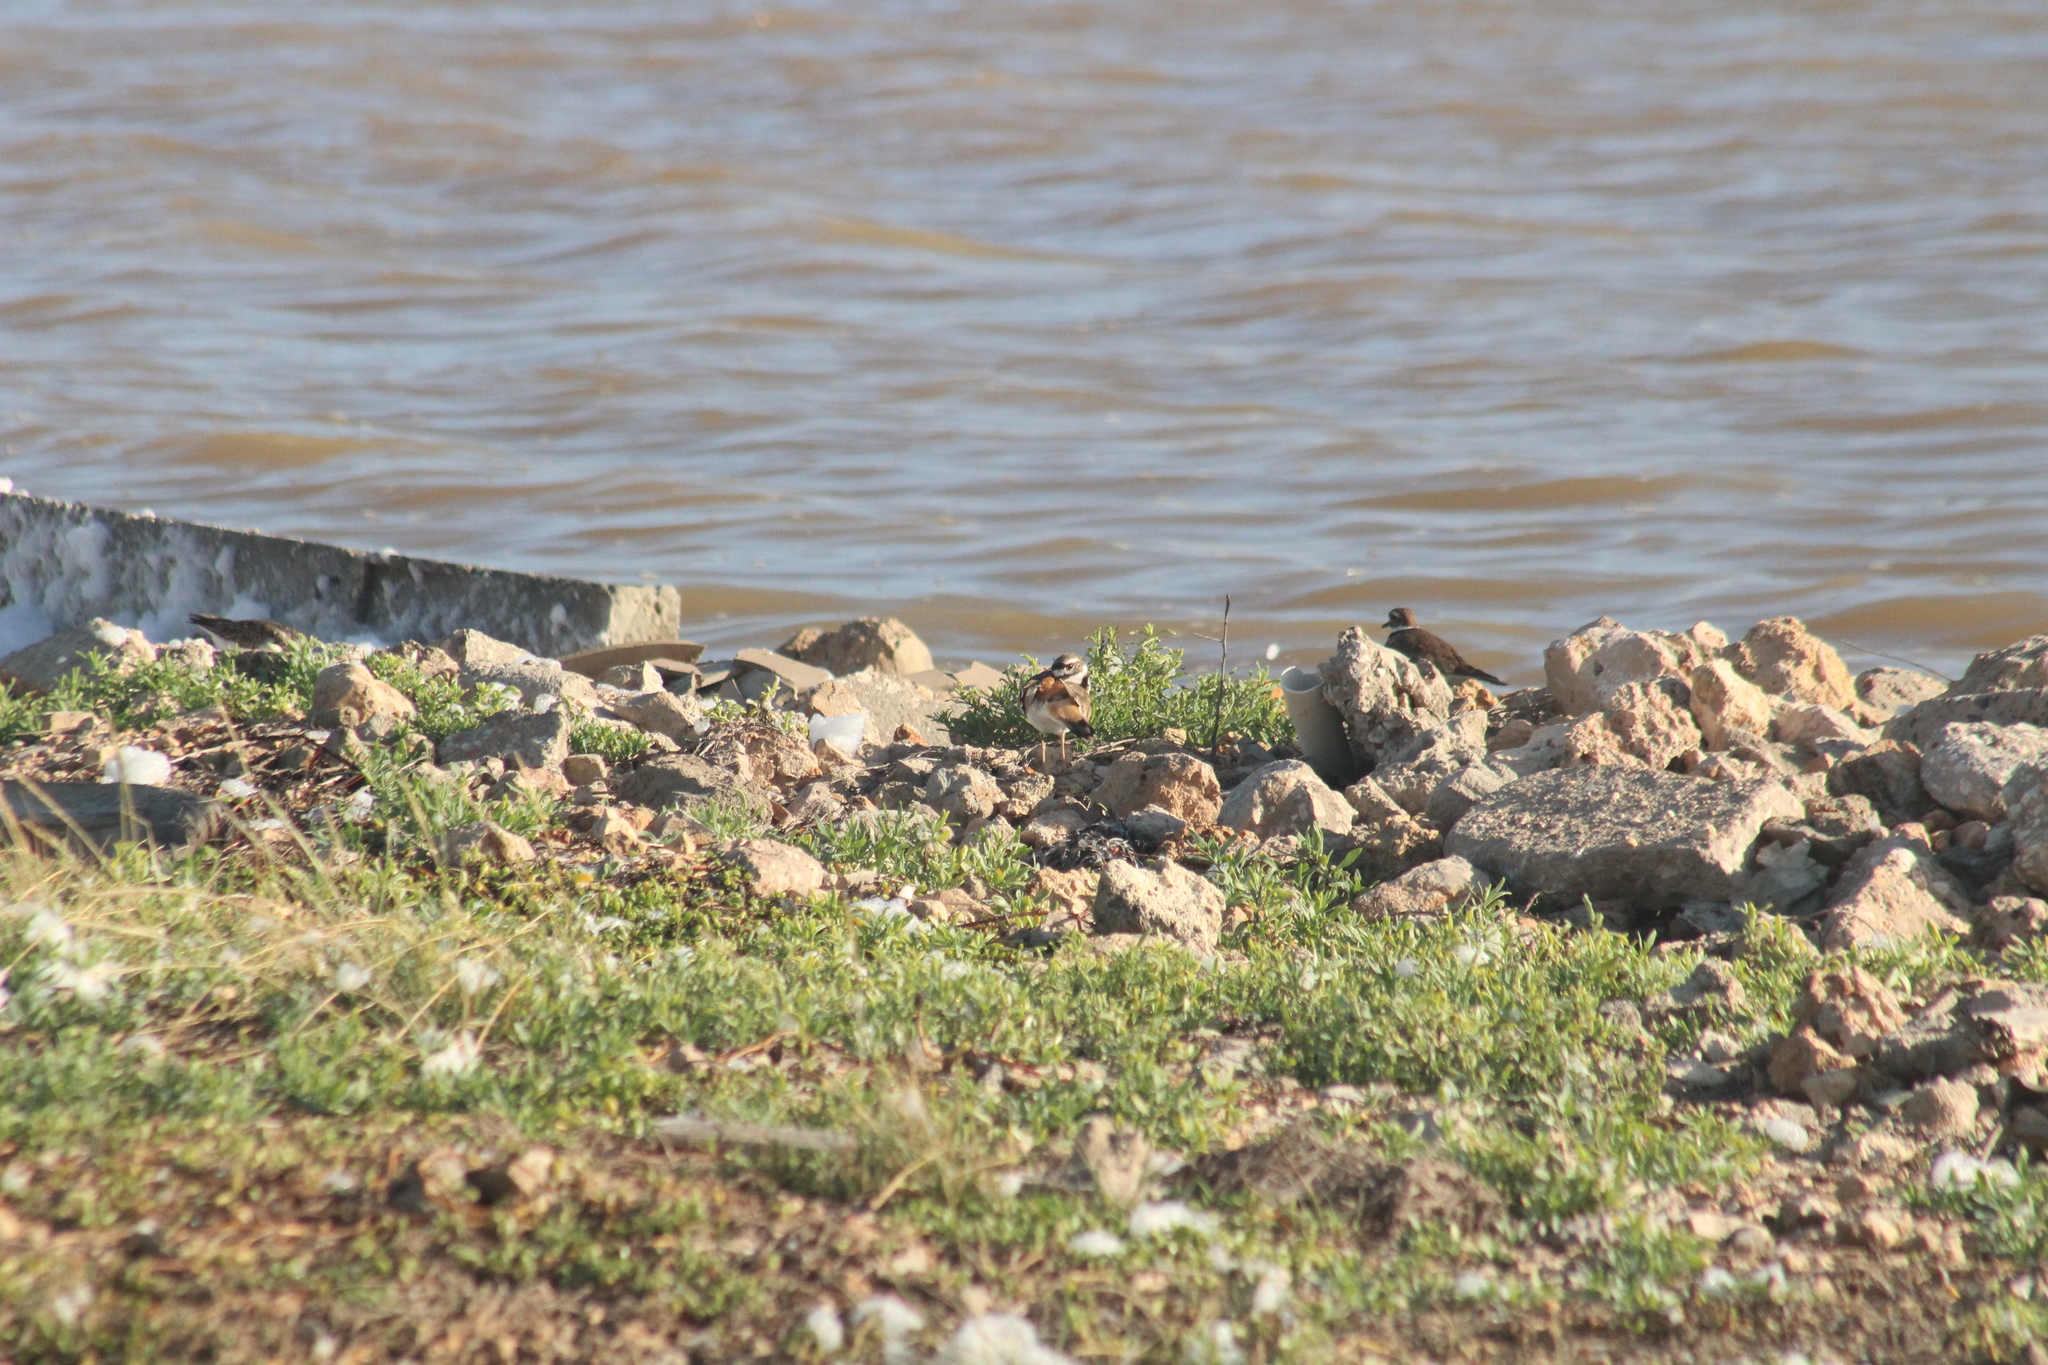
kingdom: Animalia
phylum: Chordata
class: Aves
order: Charadriiformes
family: Scolopacidae
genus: Arenaria
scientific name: Arenaria interpres
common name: Ruddy turnstone
